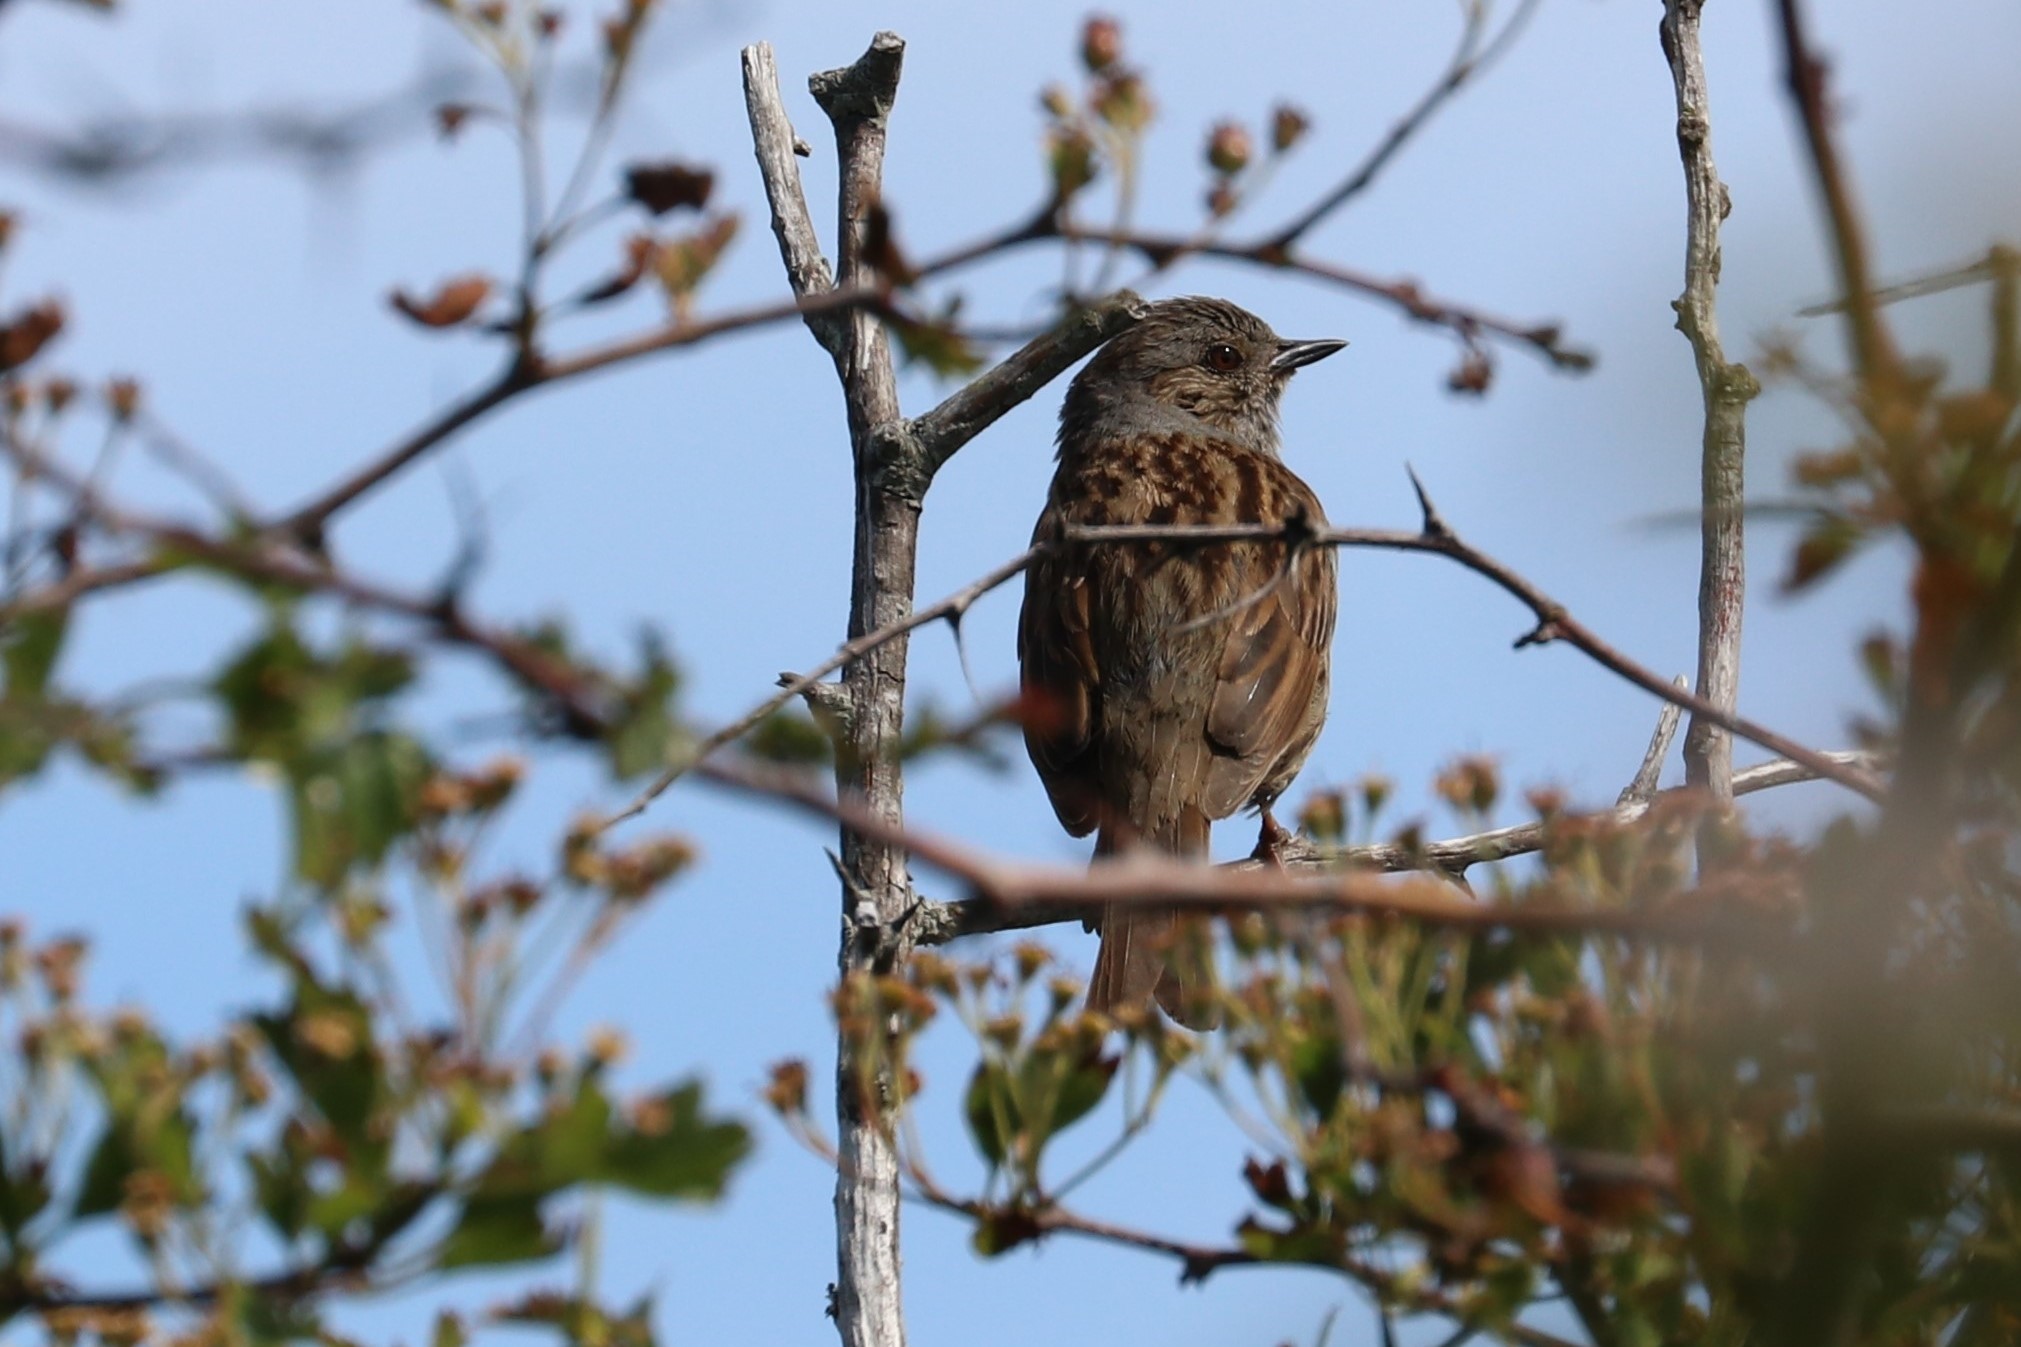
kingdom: Animalia
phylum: Chordata
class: Aves
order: Passeriformes
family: Prunellidae
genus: Prunella
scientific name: Prunella modularis
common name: Dunnock
